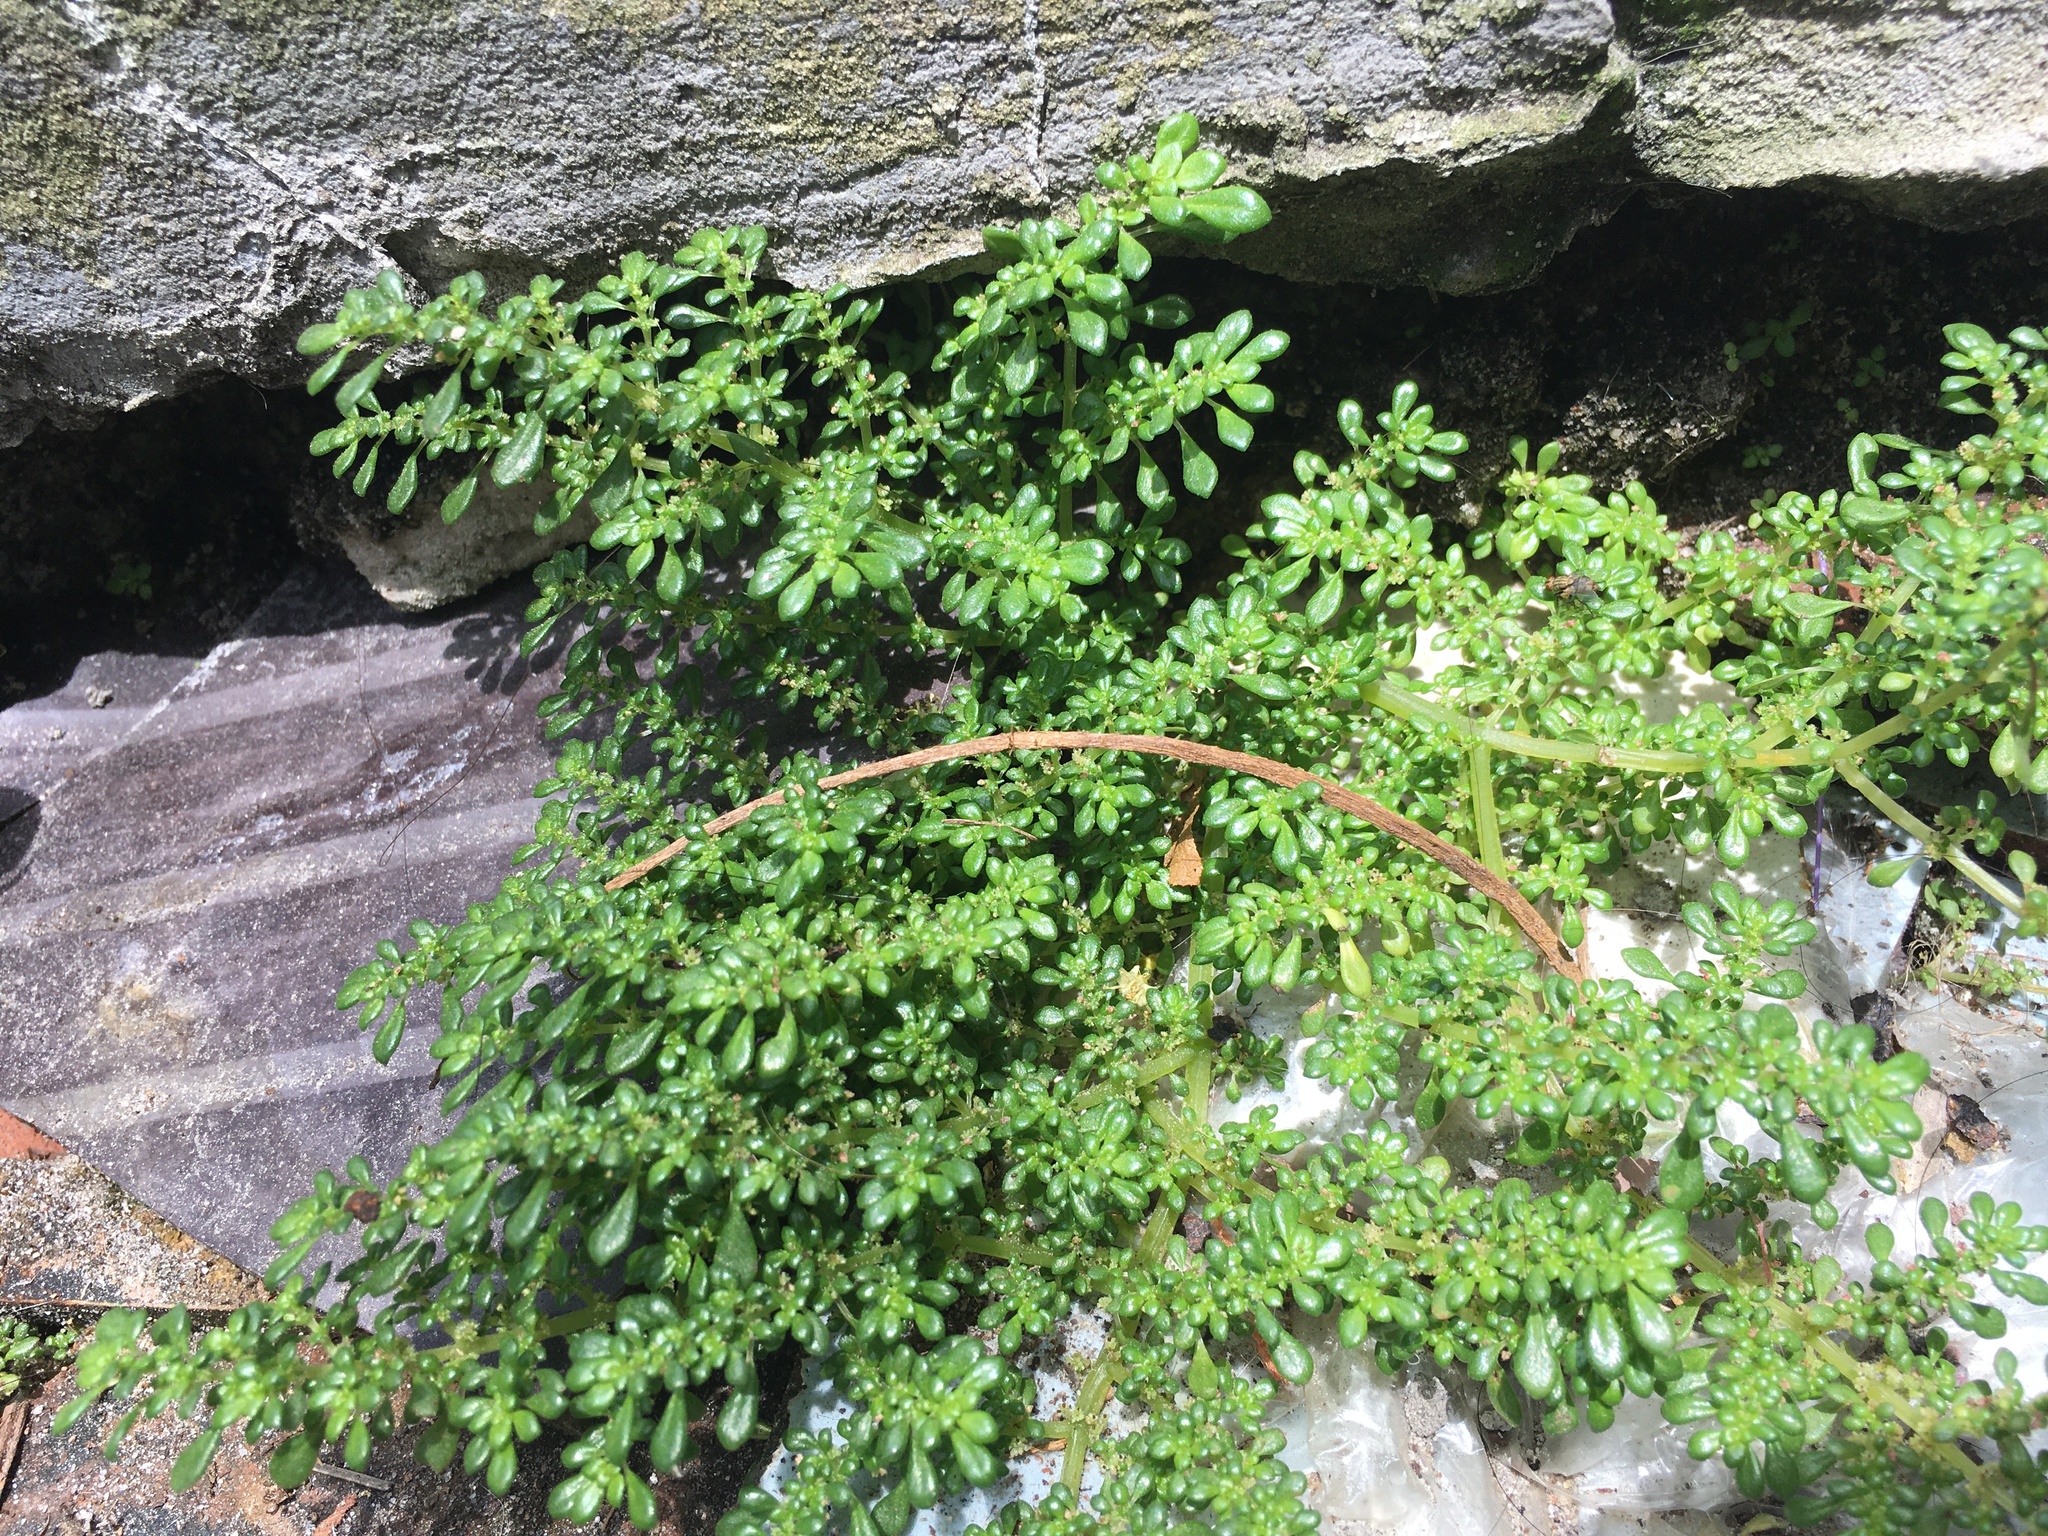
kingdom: Plantae
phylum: Tracheophyta
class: Magnoliopsida
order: Rosales
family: Urticaceae
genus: Pilea
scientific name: Pilea microphylla
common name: Artillery-plant
